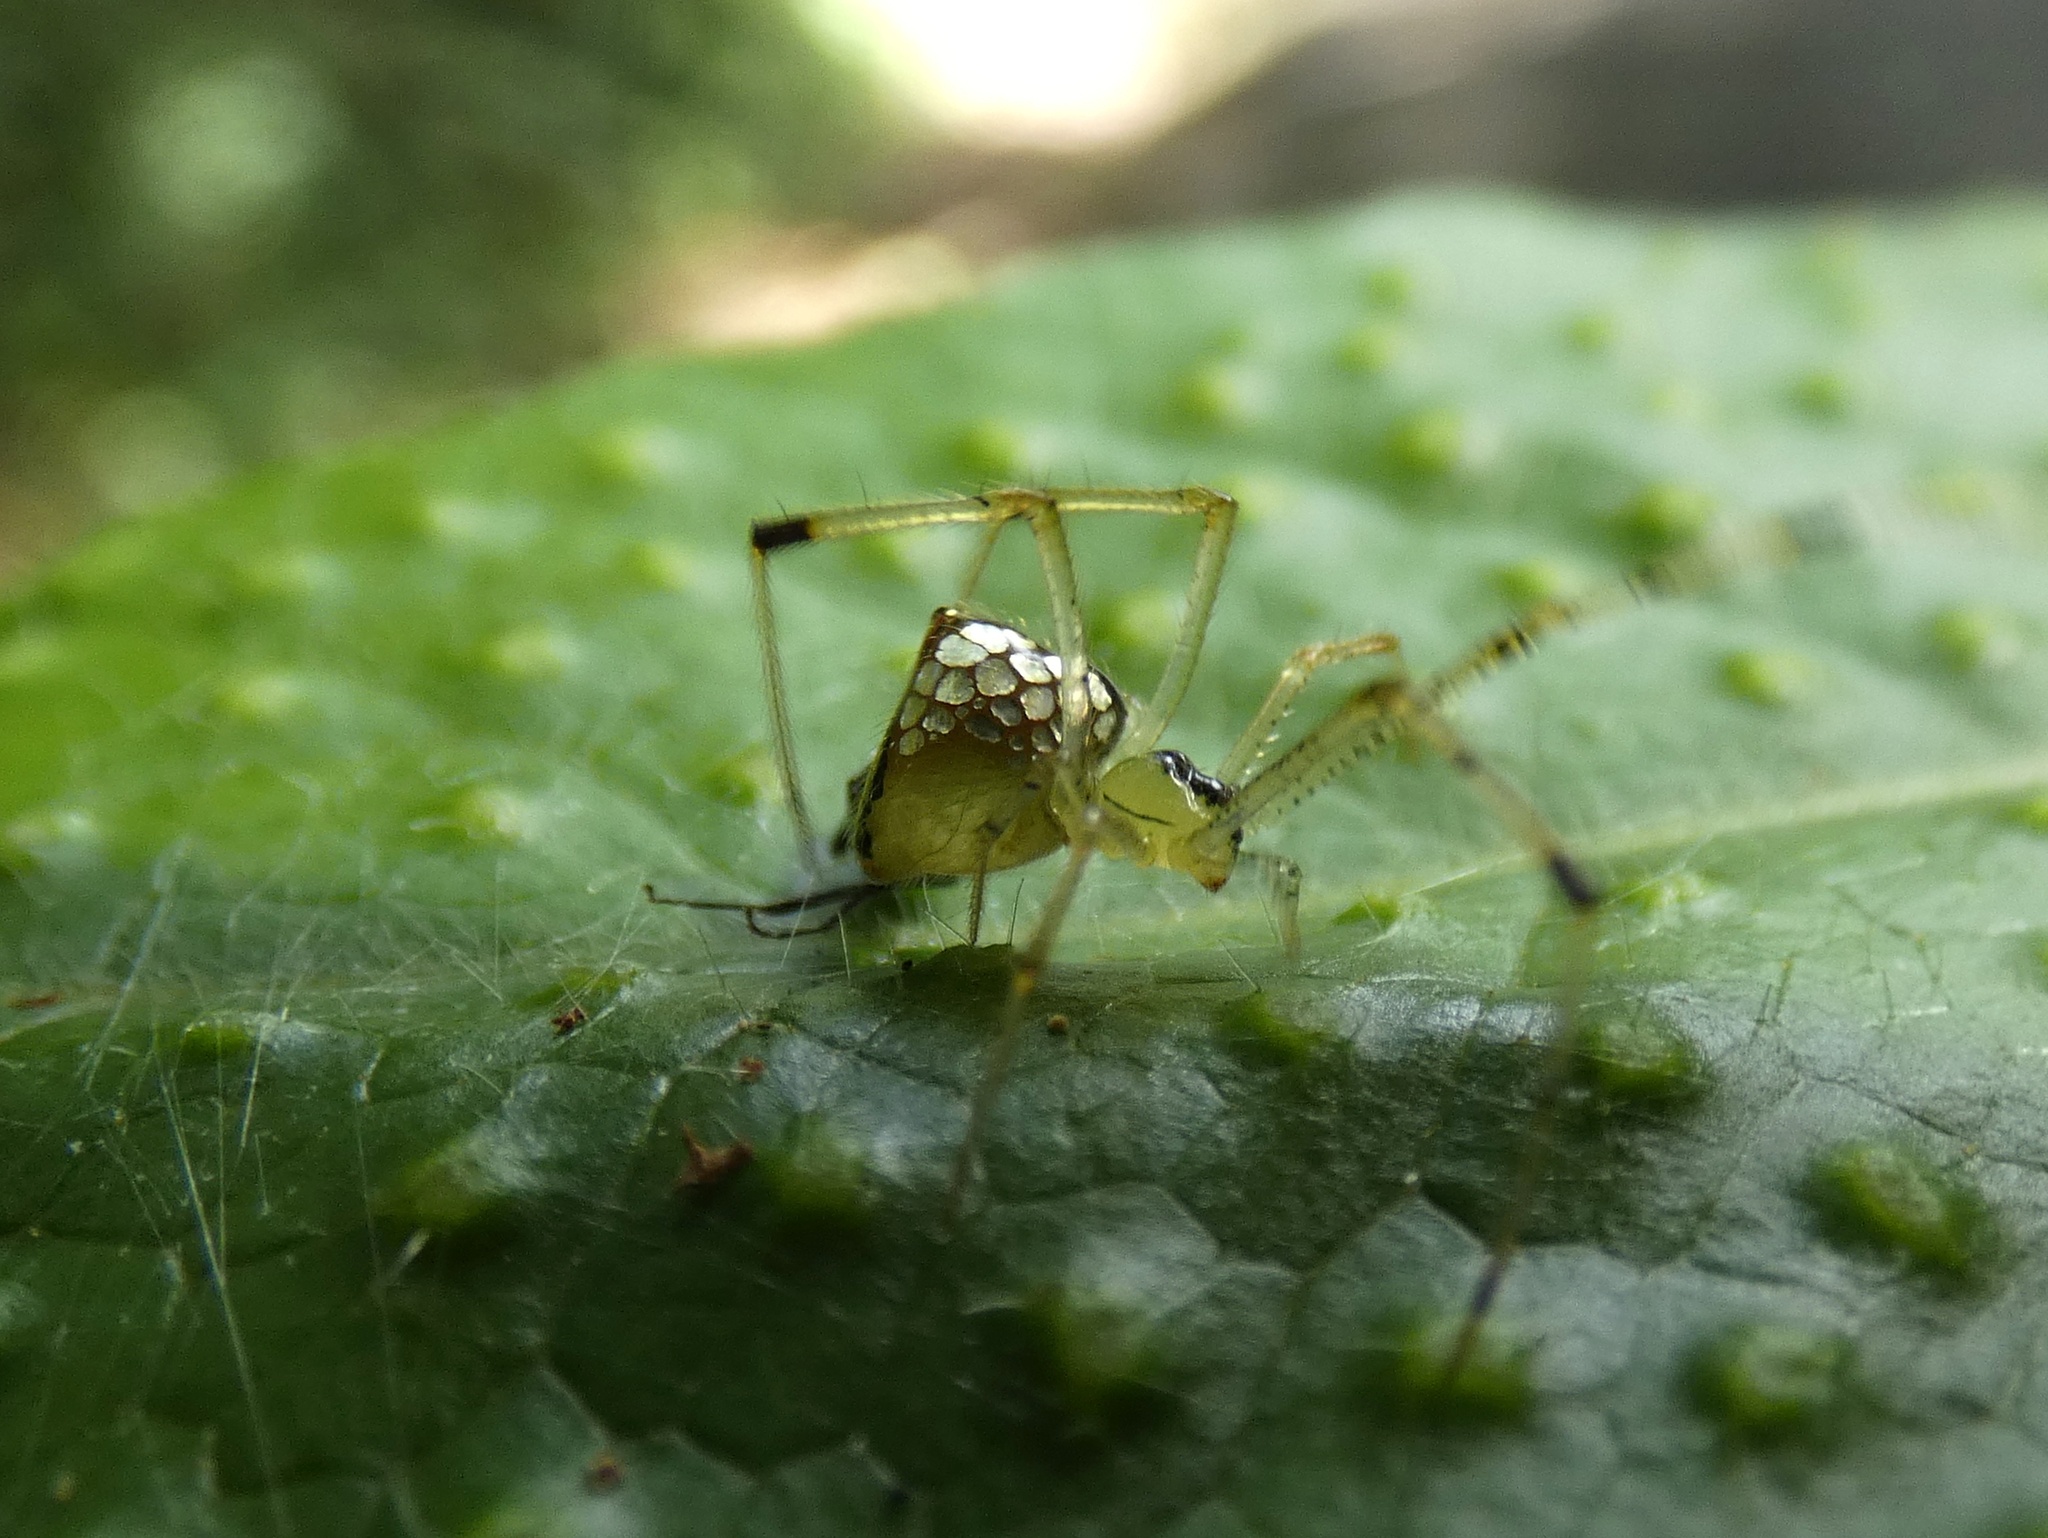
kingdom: Animalia
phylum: Arthropoda
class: Arachnida
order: Araneae
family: Theridiidae
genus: Thwaitesia
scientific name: Thwaitesia affinis
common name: Cobweb spiders
